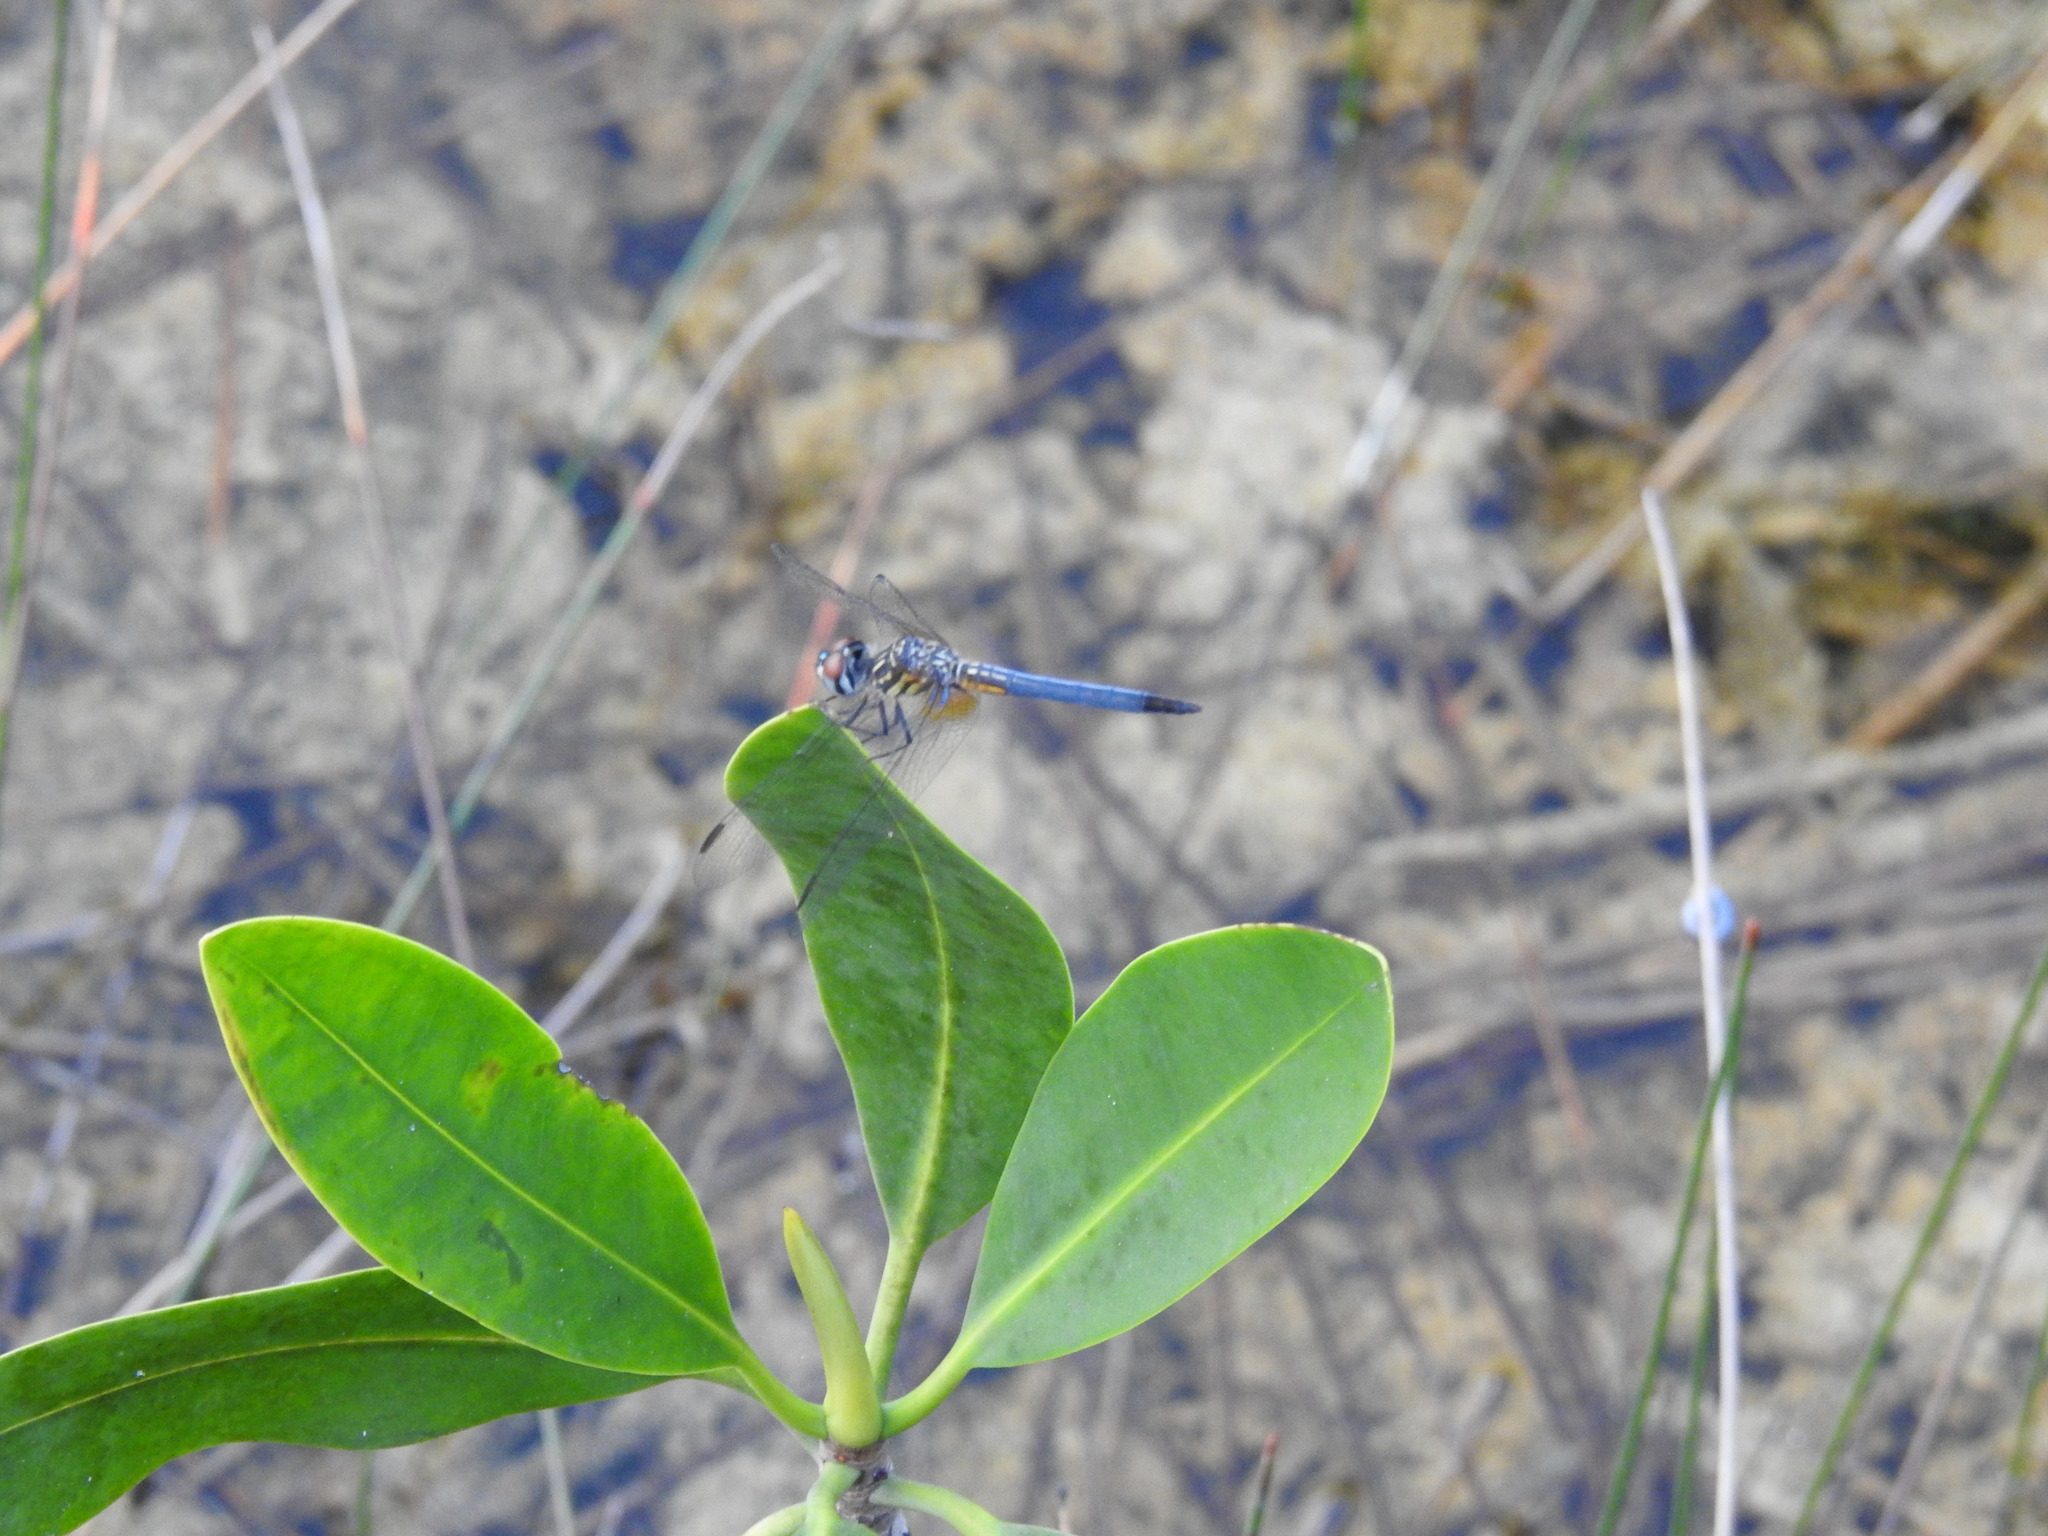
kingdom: Animalia
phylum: Arthropoda
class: Insecta
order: Odonata
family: Libellulidae
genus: Pachydiplax
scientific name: Pachydiplax longipennis
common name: Blue dasher
